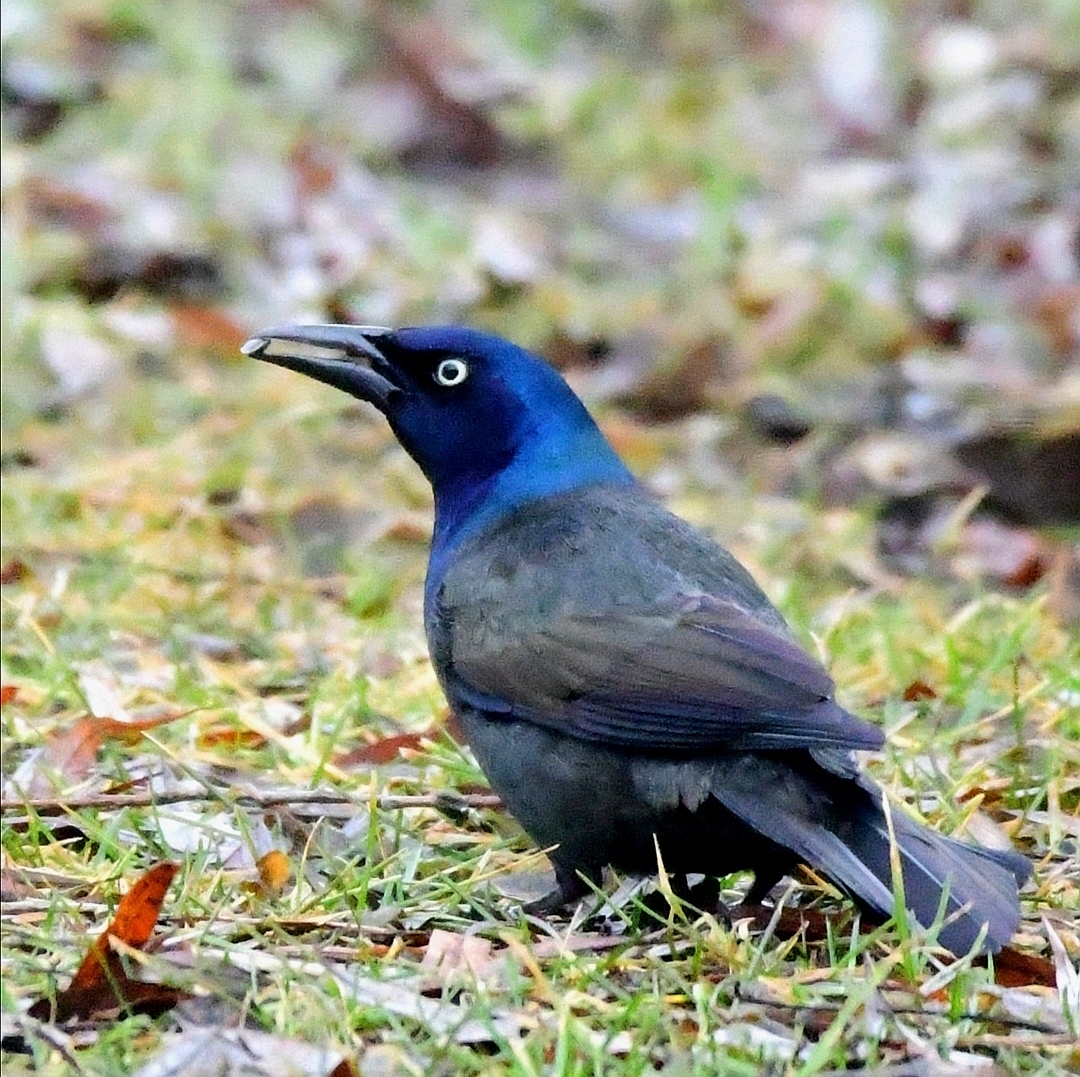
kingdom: Animalia
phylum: Chordata
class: Aves
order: Passeriformes
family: Icteridae
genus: Quiscalus
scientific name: Quiscalus quiscula
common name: Common grackle
